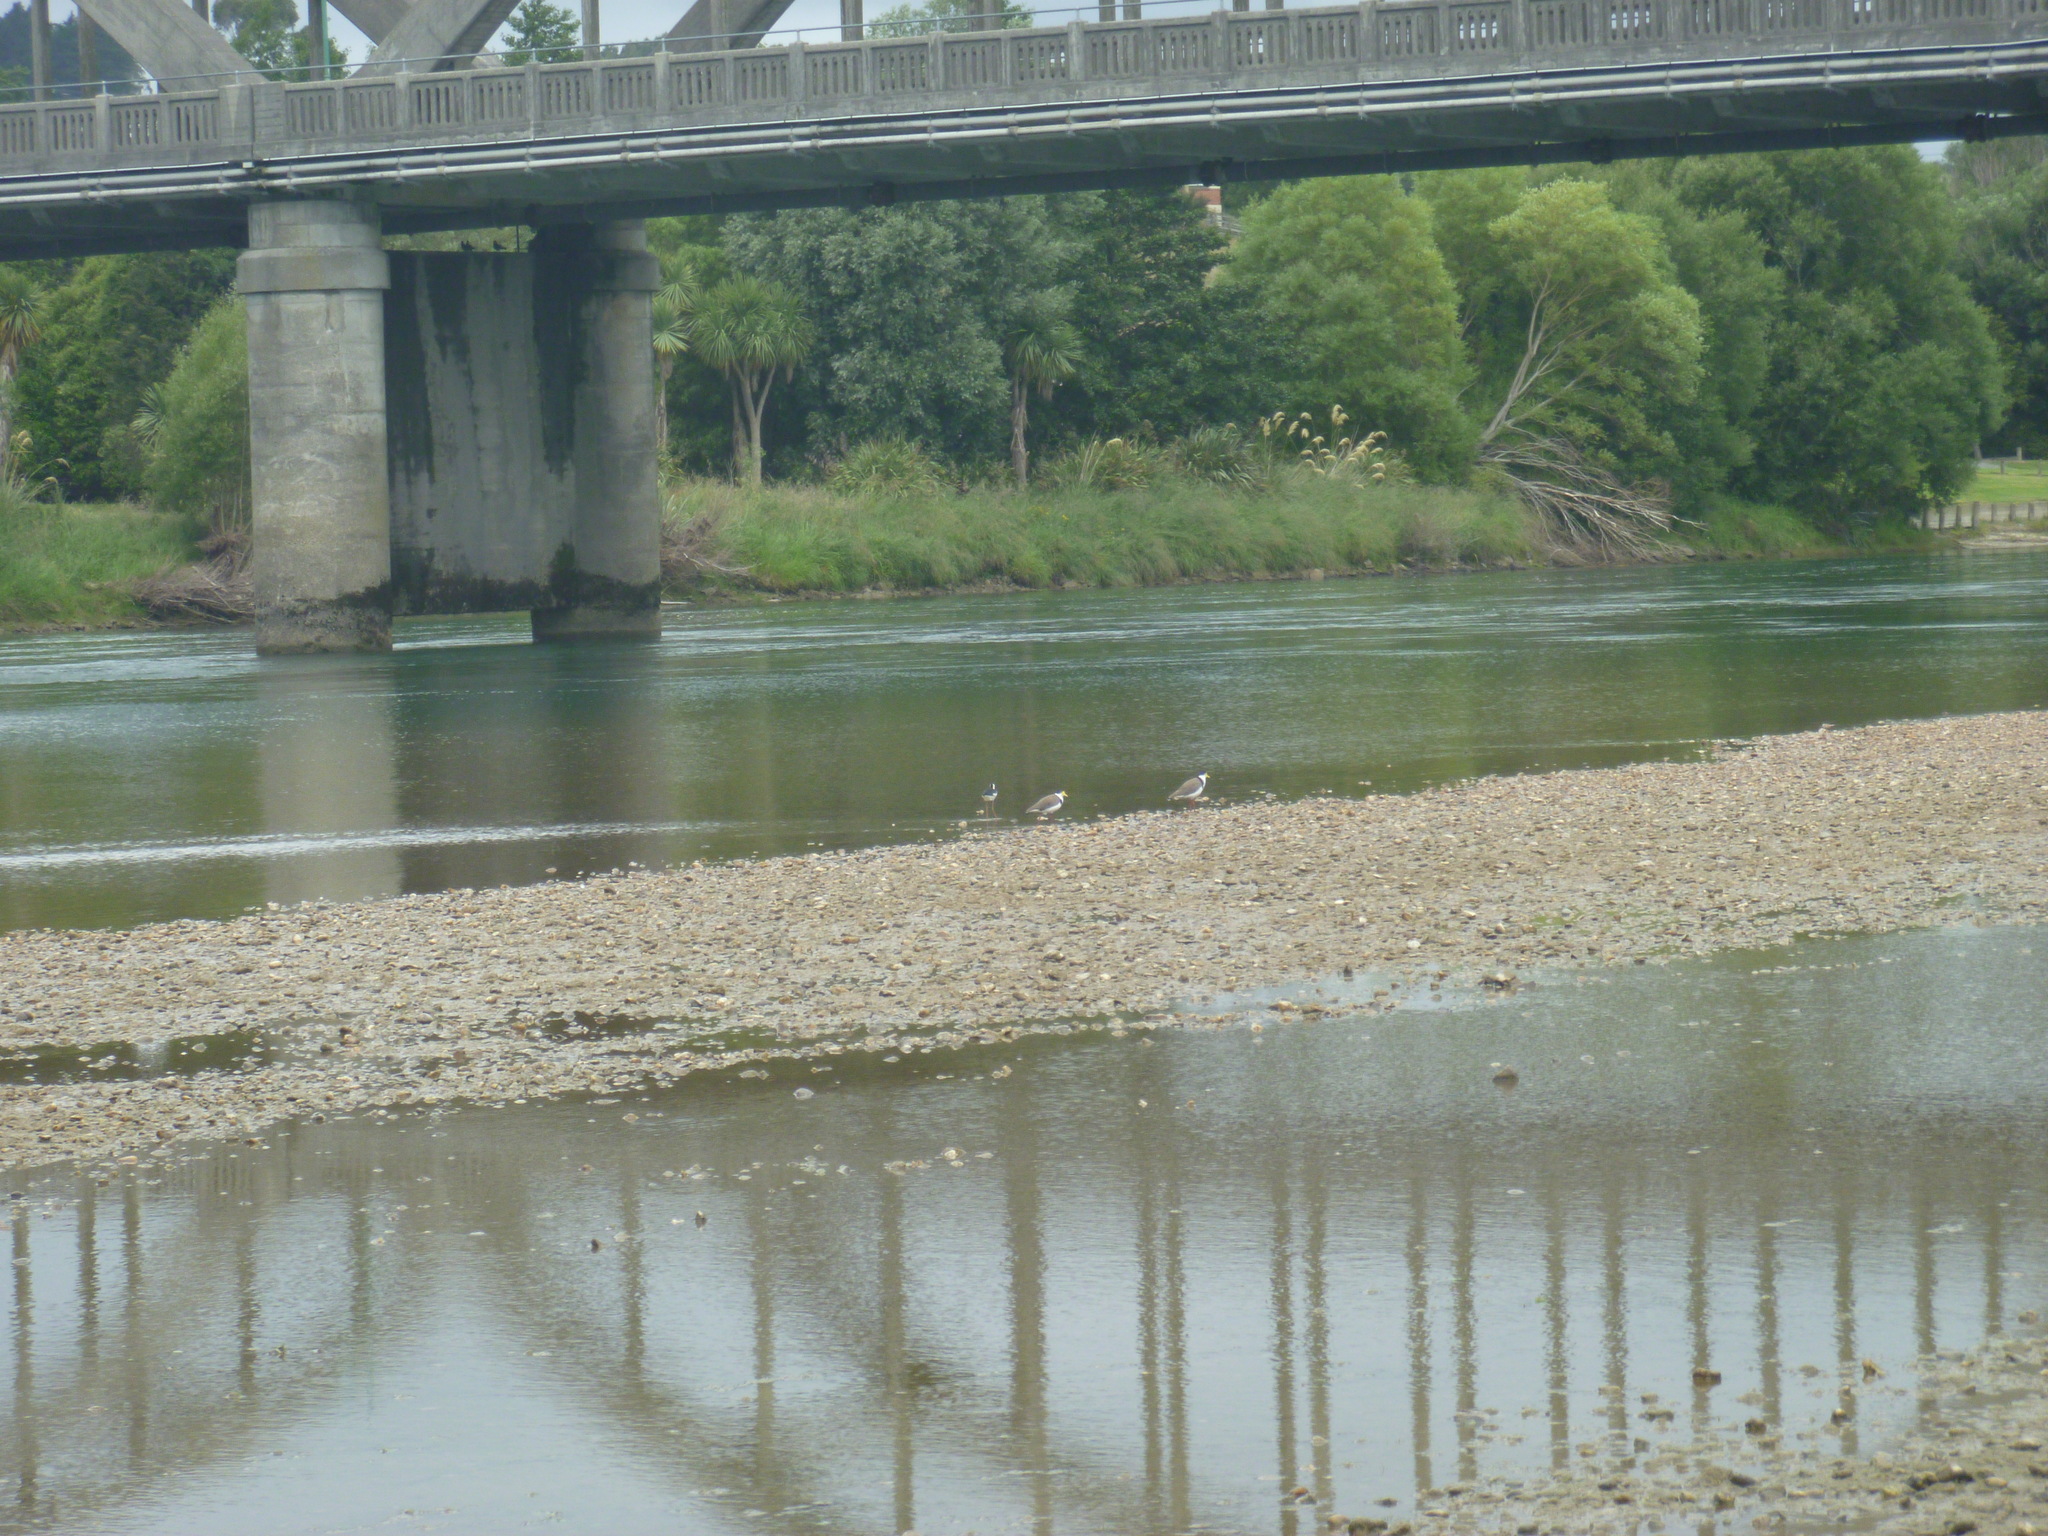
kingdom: Animalia
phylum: Chordata
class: Aves
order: Charadriiformes
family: Charadriidae
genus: Vanellus
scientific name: Vanellus miles
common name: Masked lapwing
